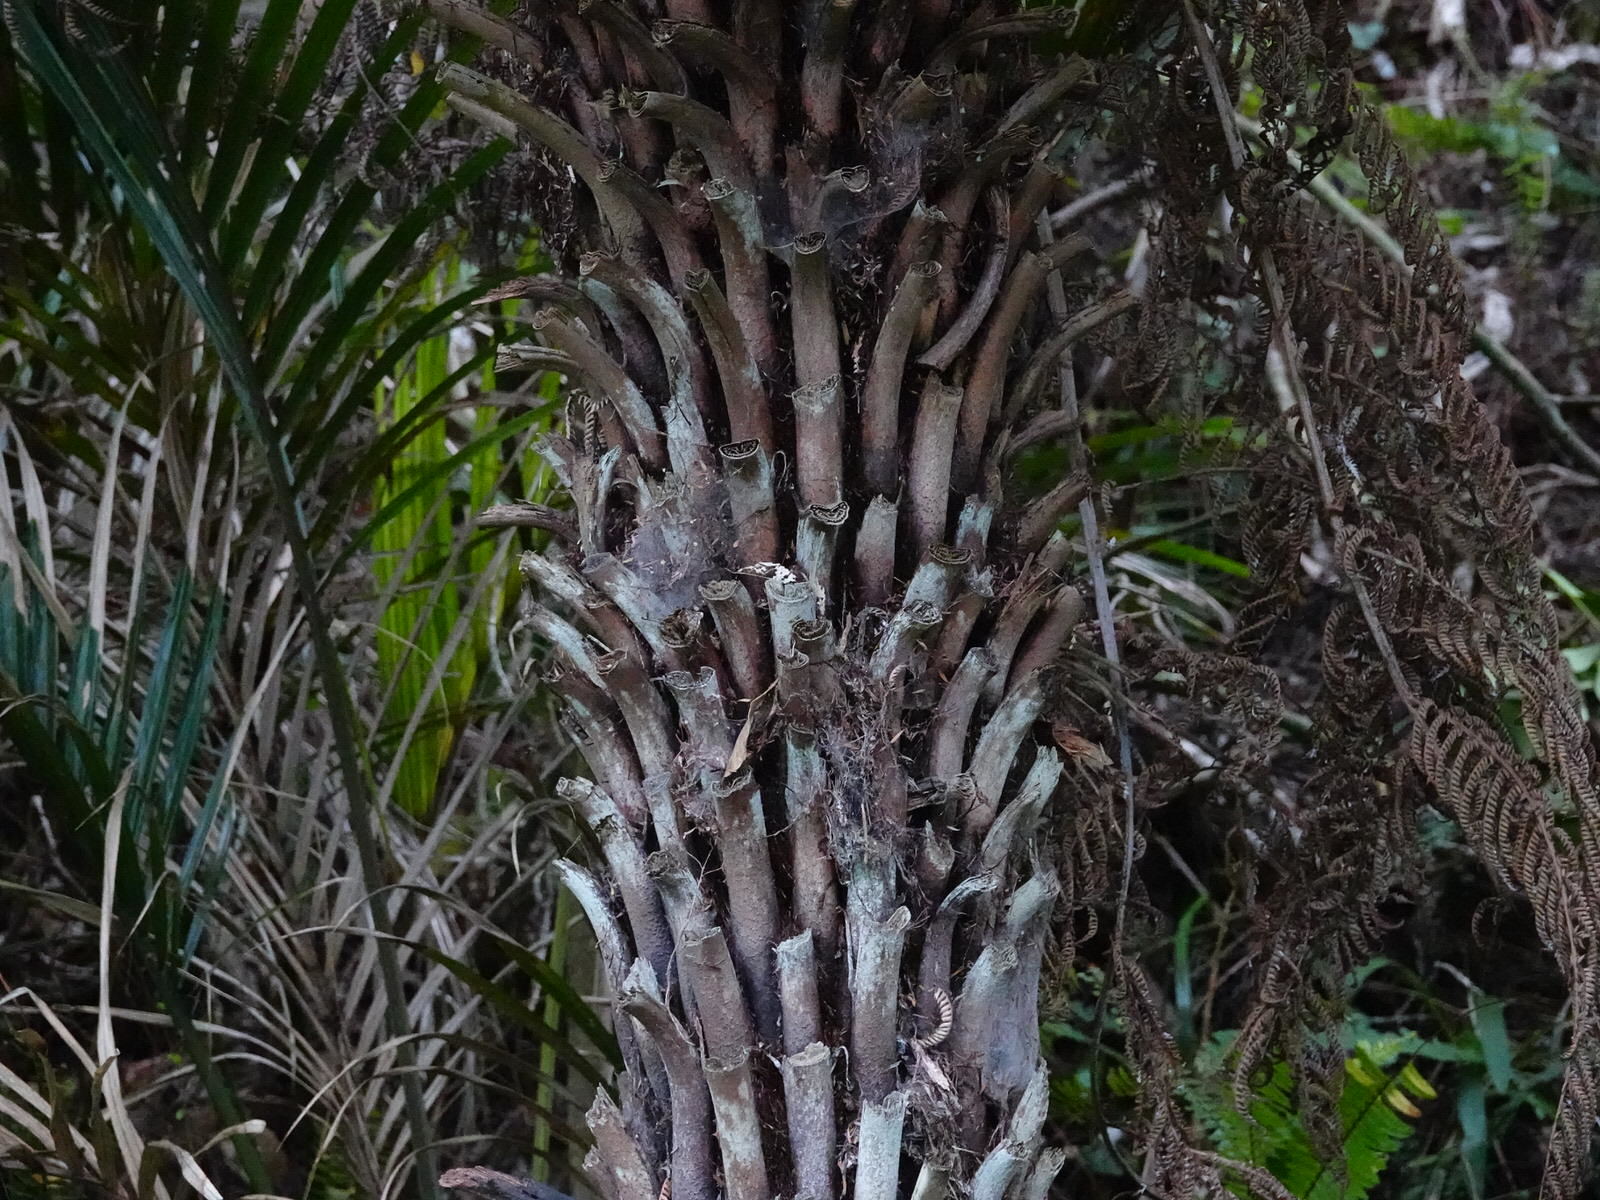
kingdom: Plantae
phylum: Tracheophyta
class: Polypodiopsida
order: Cyatheales
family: Cyatheaceae
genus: Alsophila
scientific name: Alsophila dealbata
